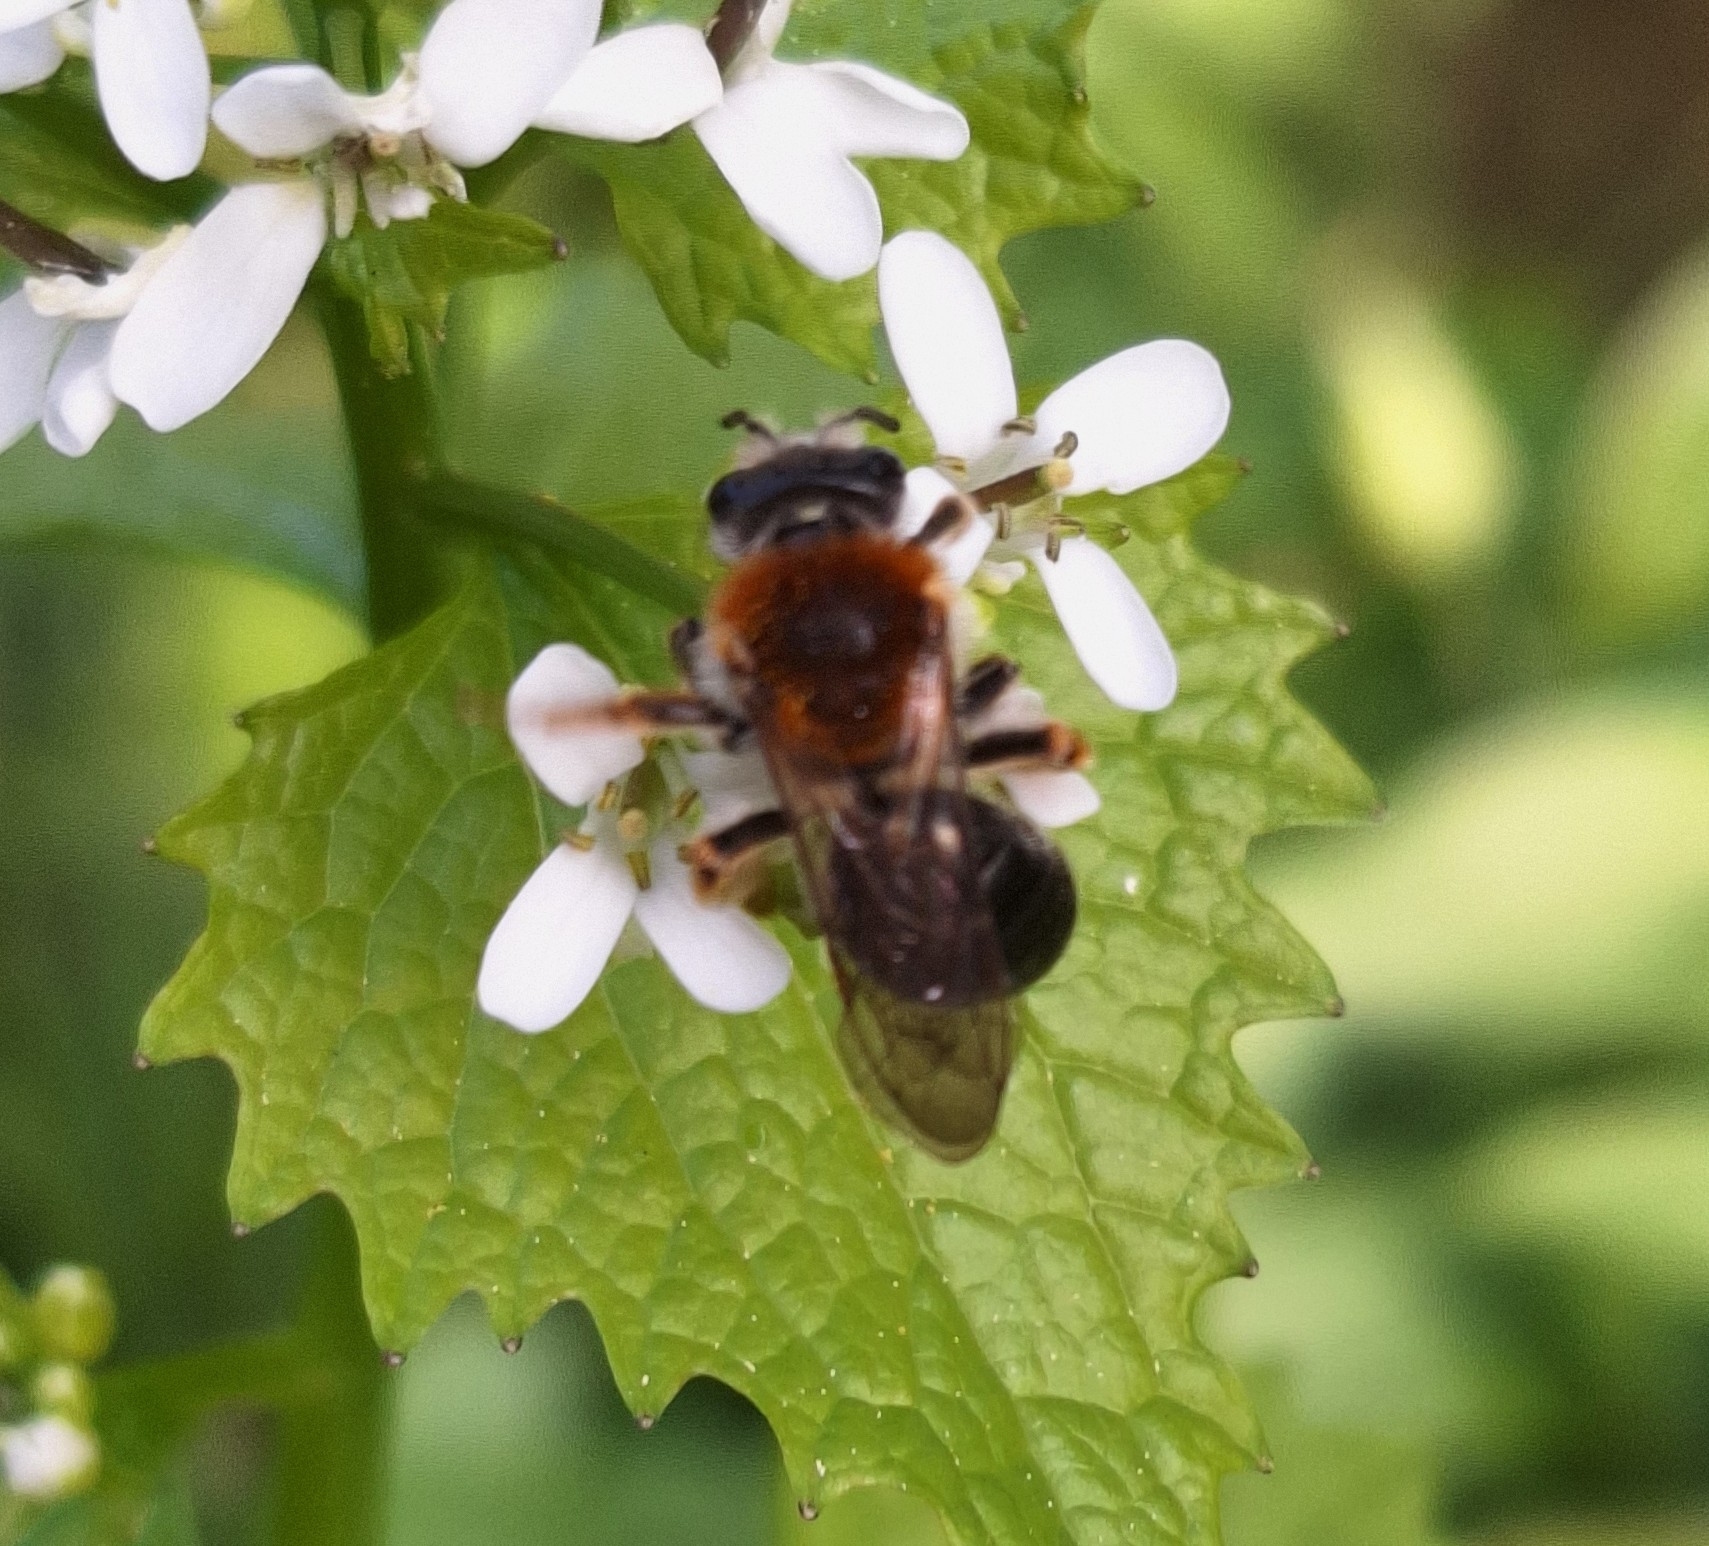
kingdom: Animalia
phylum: Arthropoda
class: Insecta
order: Hymenoptera
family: Andrenidae
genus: Andrena
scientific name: Andrena haemorrhoa
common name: Early mining bee
